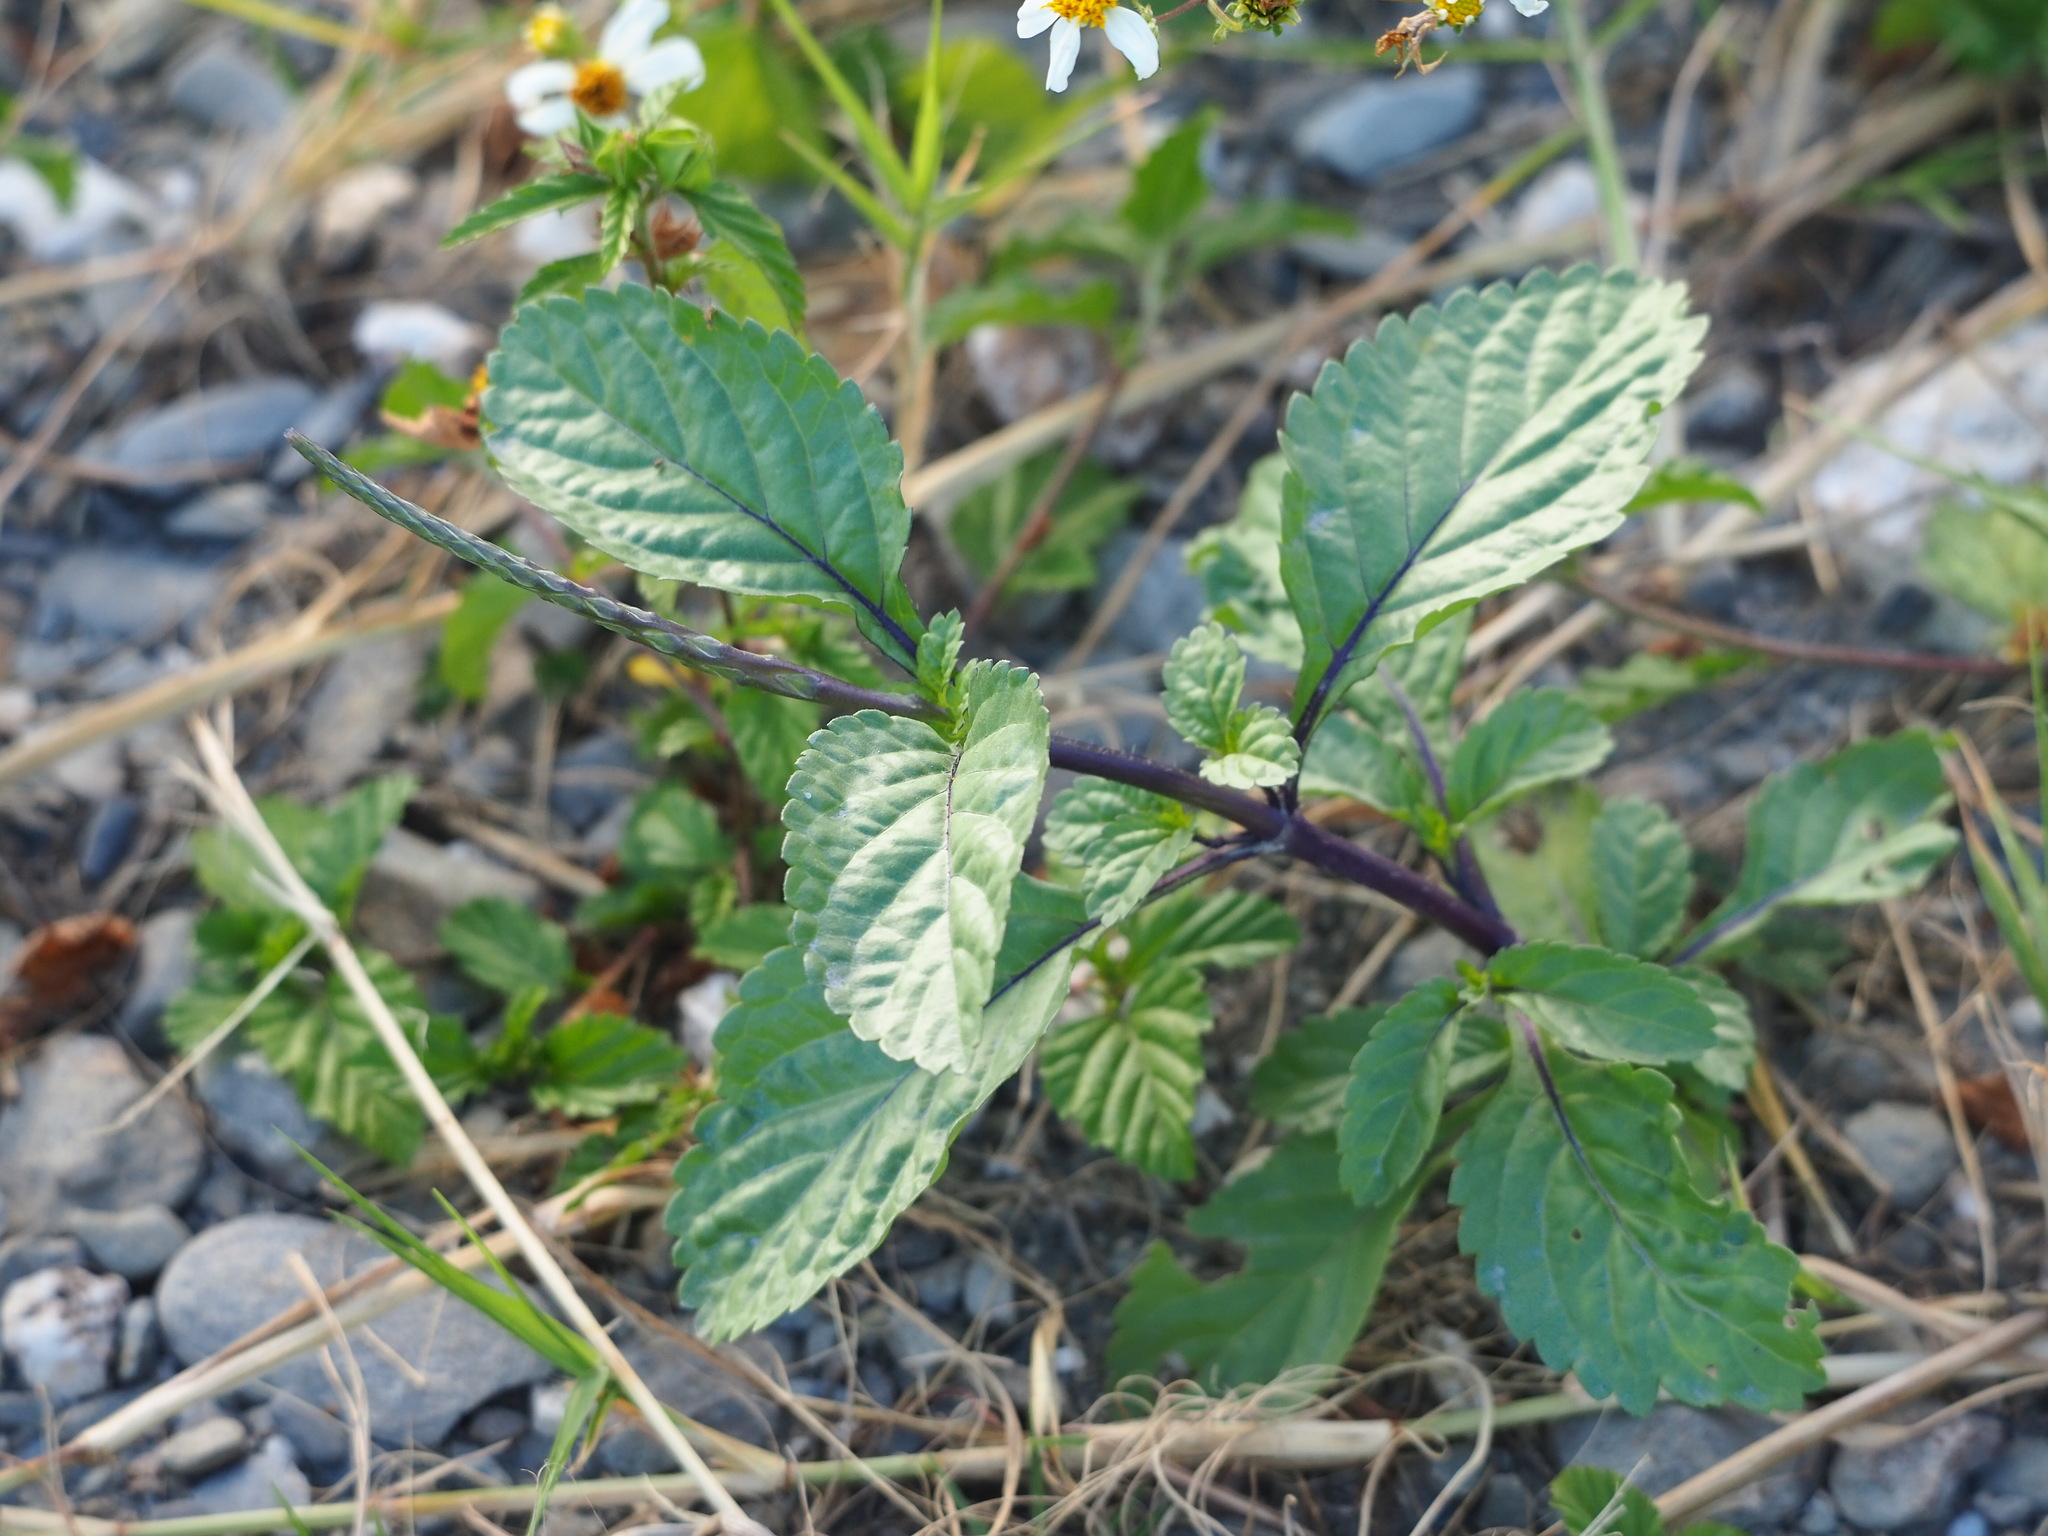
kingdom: Plantae
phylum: Tracheophyta
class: Magnoliopsida
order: Lamiales
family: Verbenaceae
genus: Stachytarpheta
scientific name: Stachytarpheta jamaicensis
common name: Light-blue snakeweed
